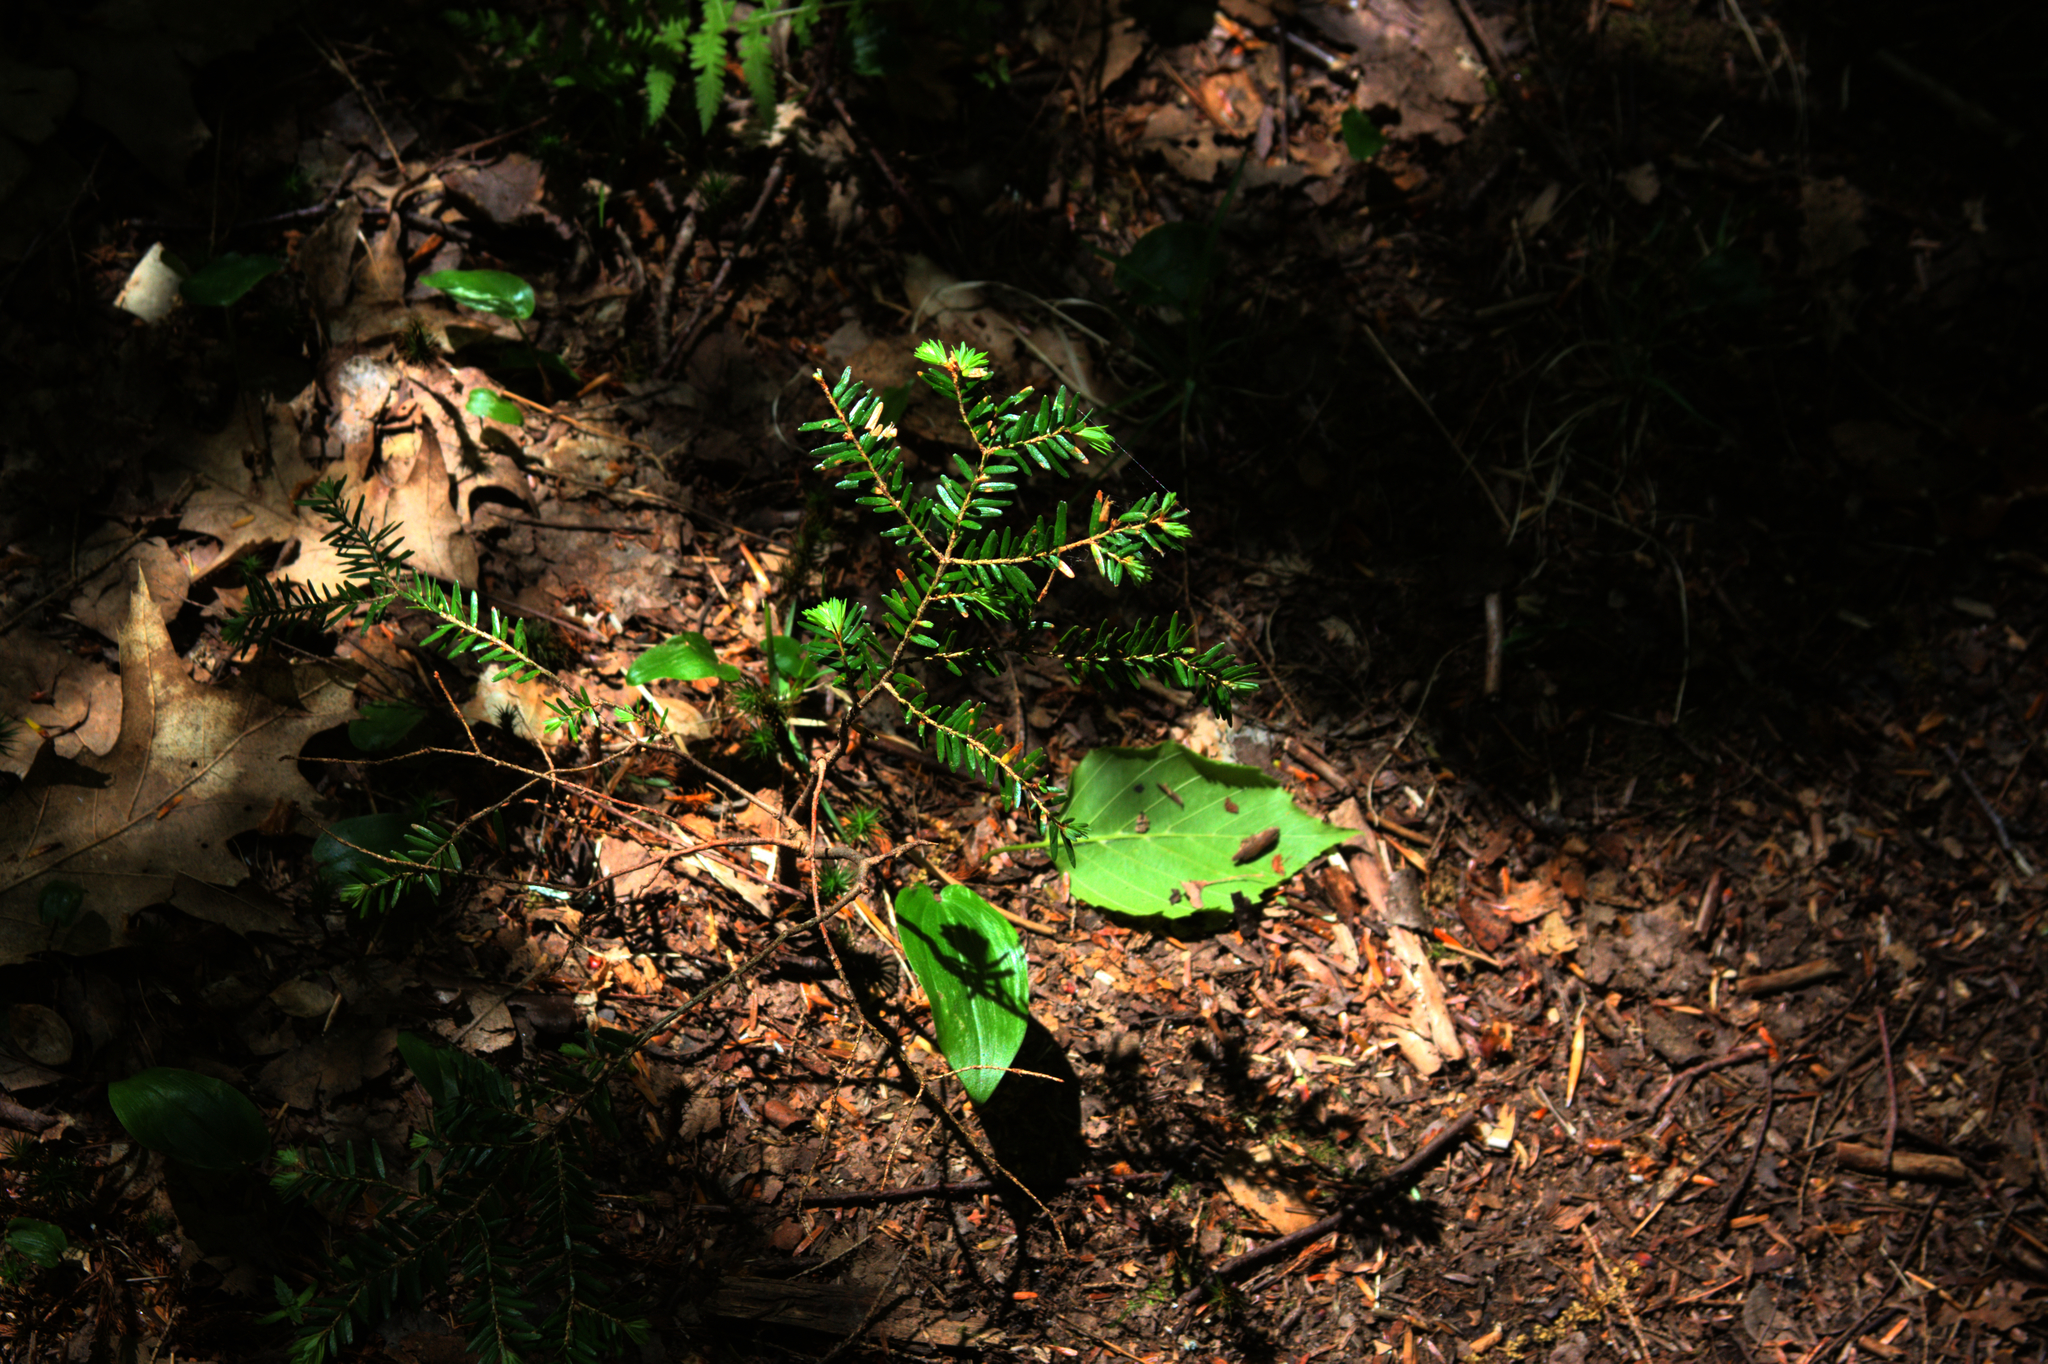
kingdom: Plantae
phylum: Tracheophyta
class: Pinopsida
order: Pinales
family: Pinaceae
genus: Tsuga
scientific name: Tsuga canadensis
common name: Eastern hemlock
